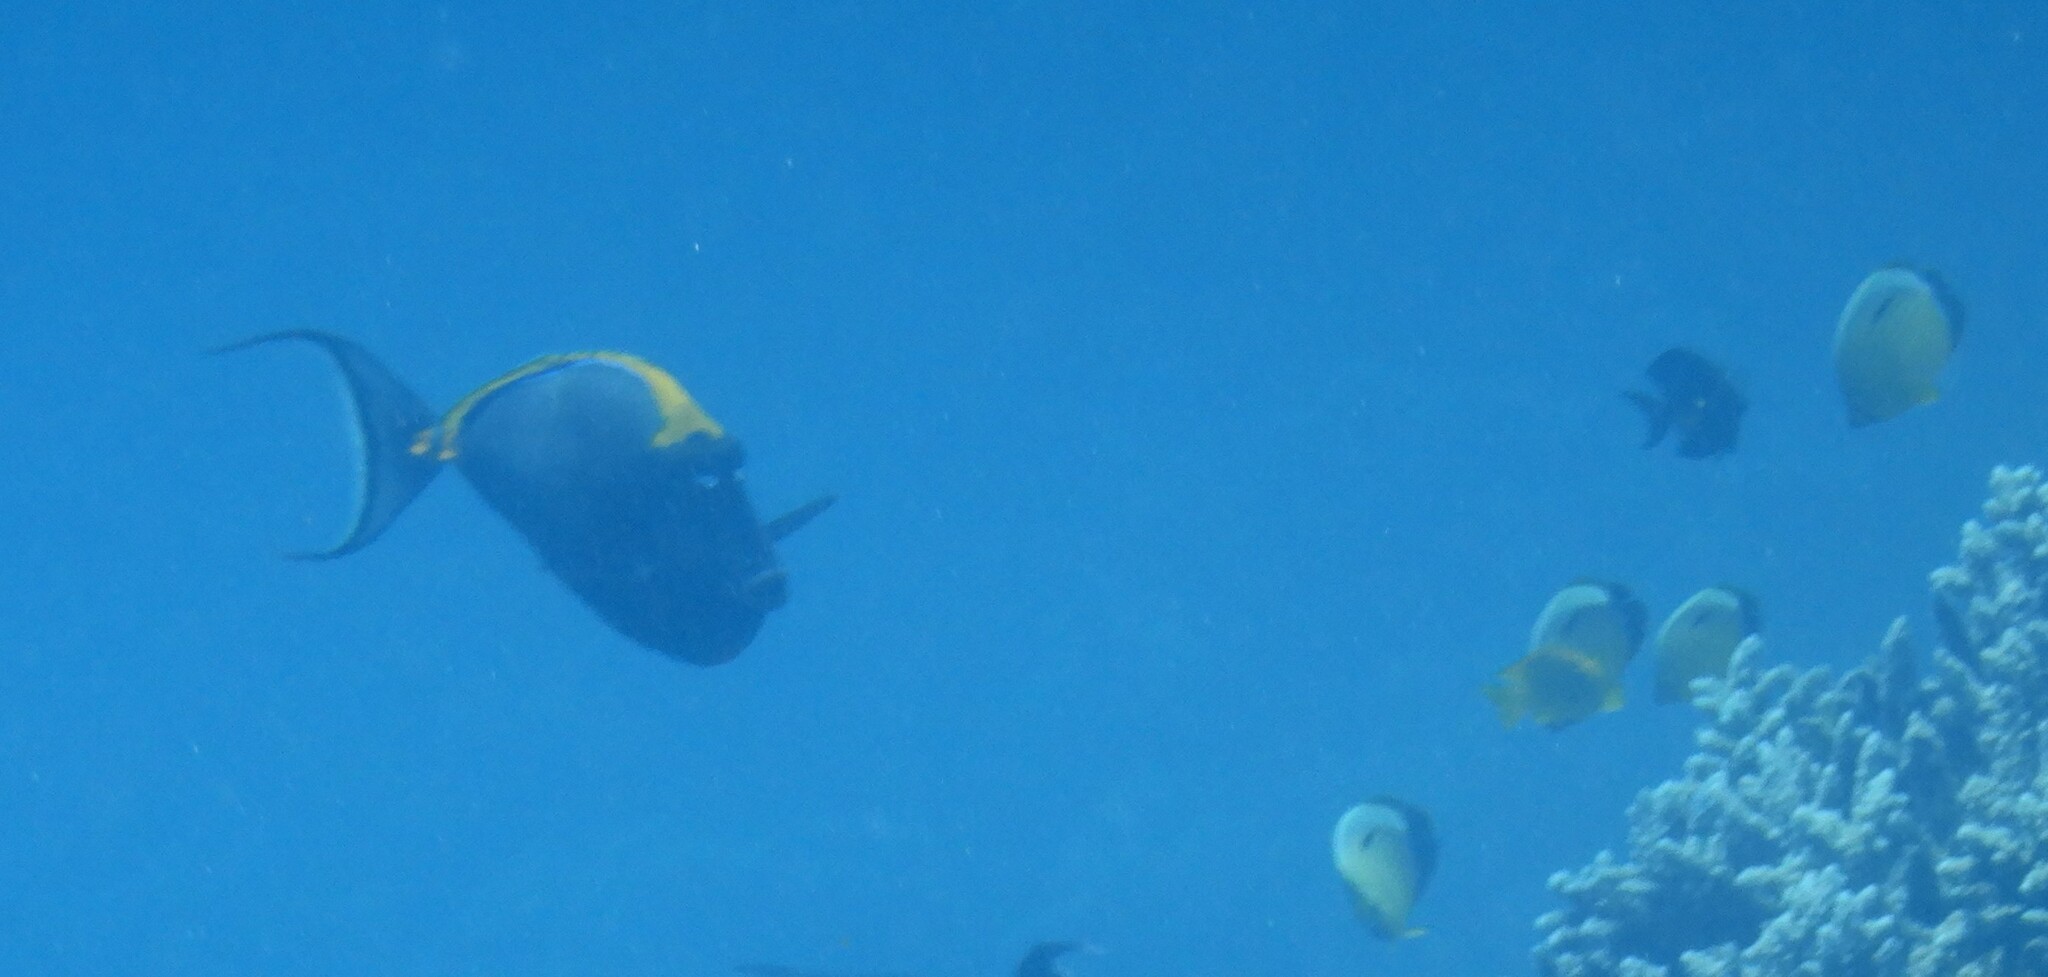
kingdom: Animalia
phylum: Chordata
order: Perciformes
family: Chaetodontidae
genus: Chaetodon
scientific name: Chaetodon austriacus
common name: Exquisite butterflyfish
